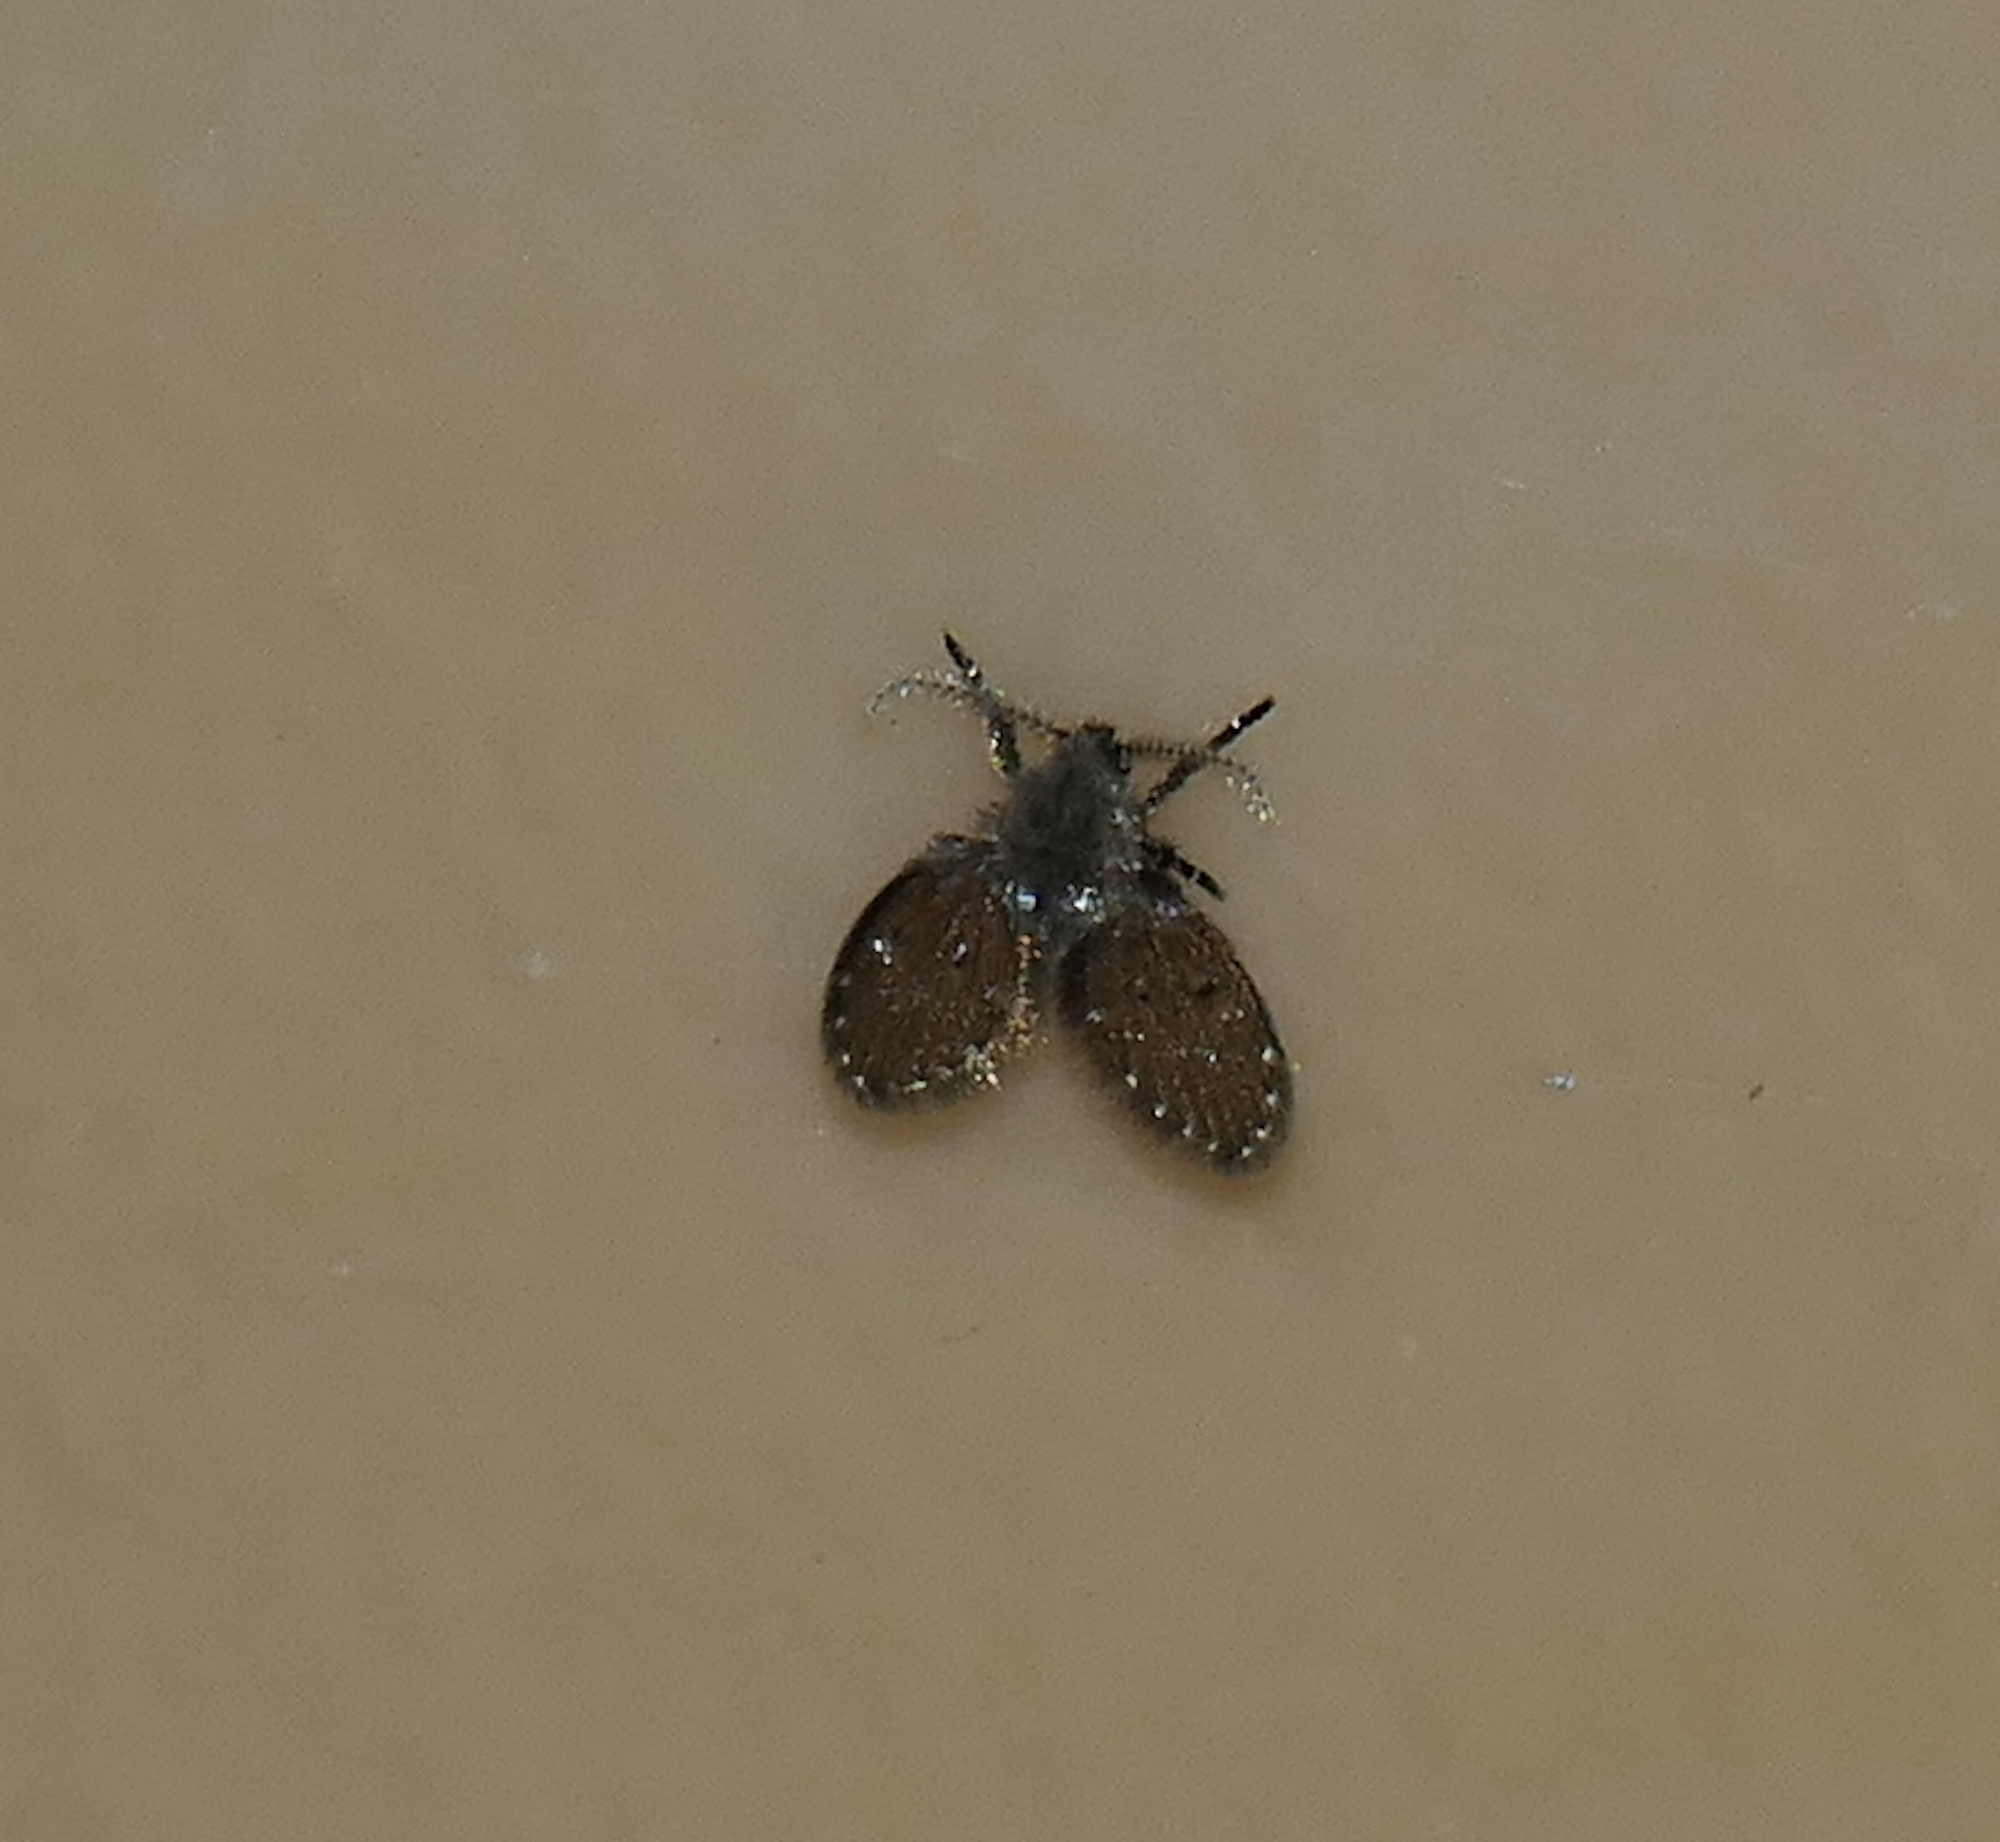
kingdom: Animalia
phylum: Arthropoda
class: Insecta
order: Diptera
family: Psychodidae
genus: Clogmia
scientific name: Clogmia albipunctatus
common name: White-spotted moth fly
